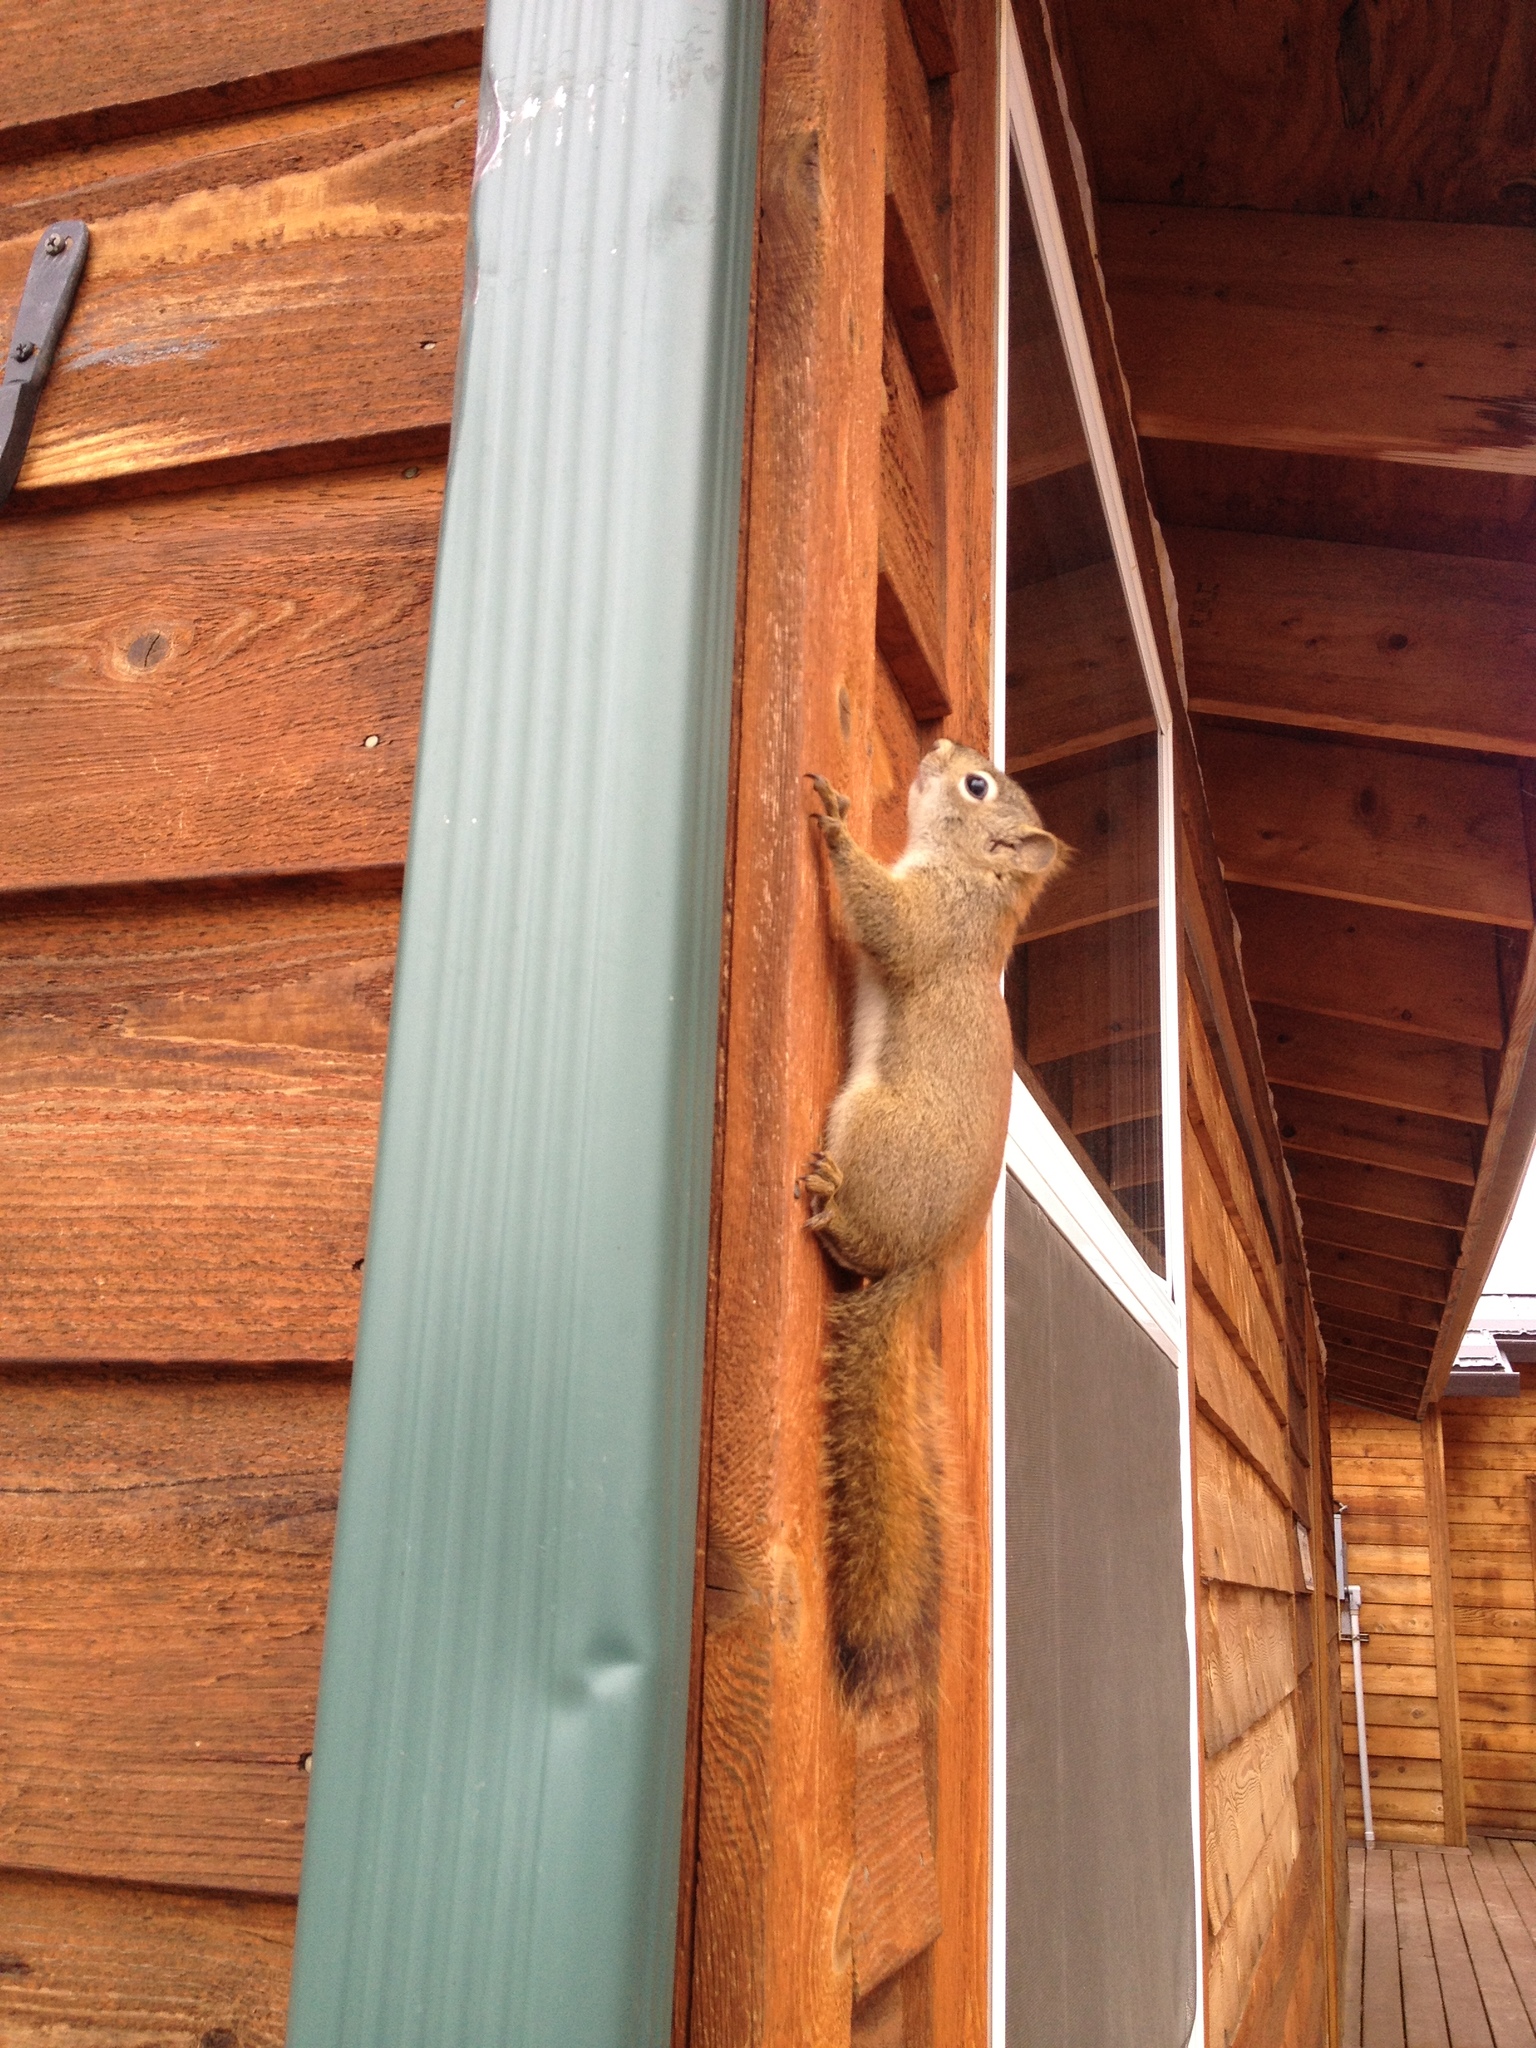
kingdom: Animalia
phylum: Chordata
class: Mammalia
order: Rodentia
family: Sciuridae
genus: Tamiasciurus
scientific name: Tamiasciurus hudsonicus
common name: Red squirrel
